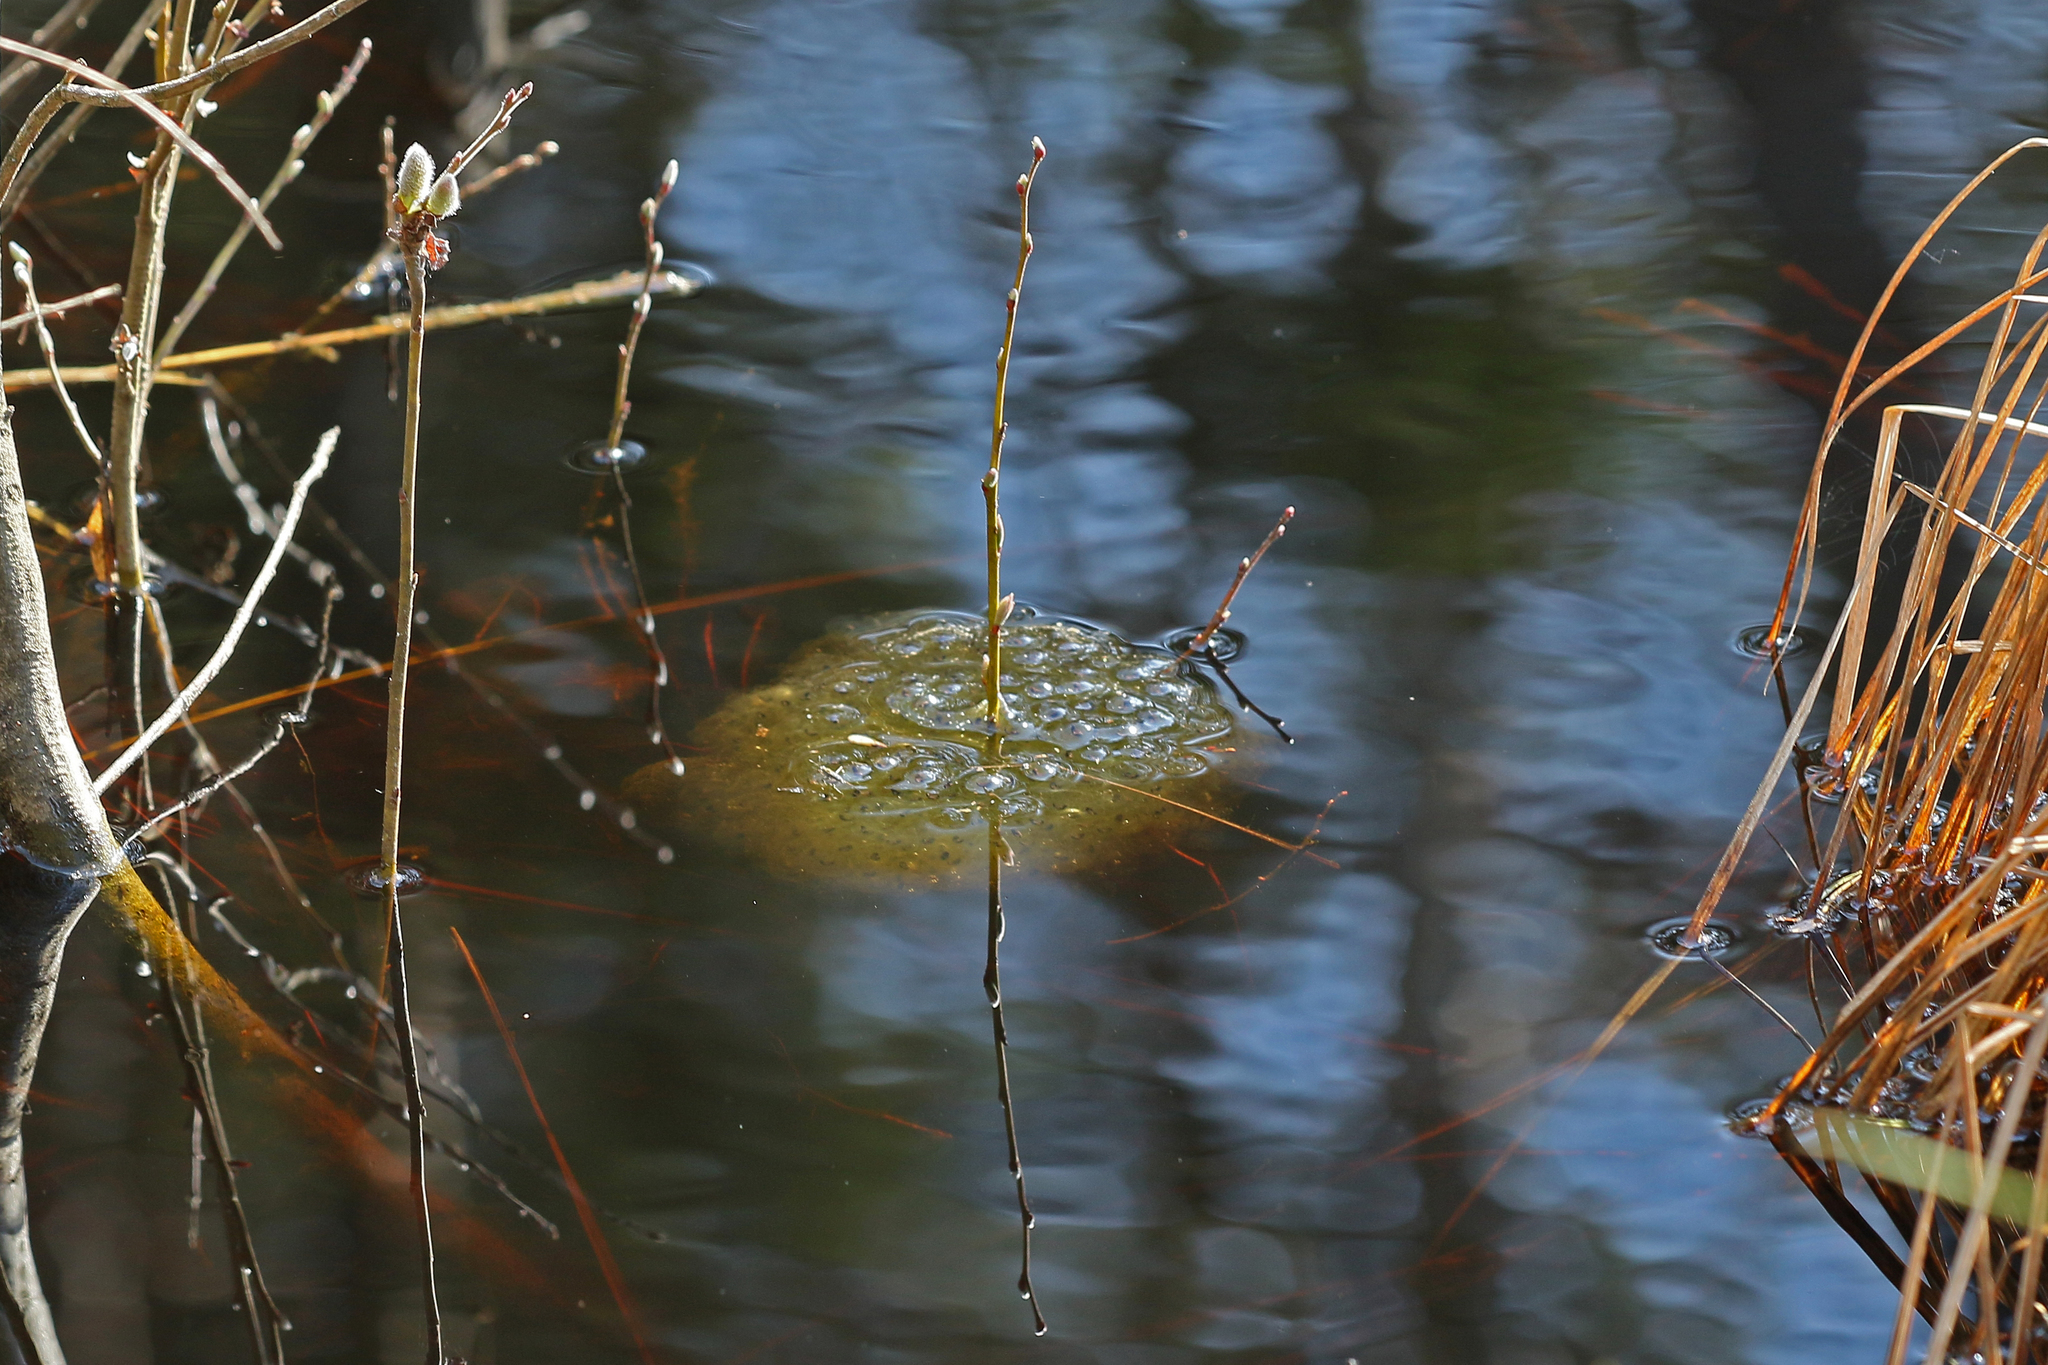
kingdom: Animalia
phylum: Chordata
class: Amphibia
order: Anura
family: Ranidae
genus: Rana
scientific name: Rana dalmatina
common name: Agile frog
